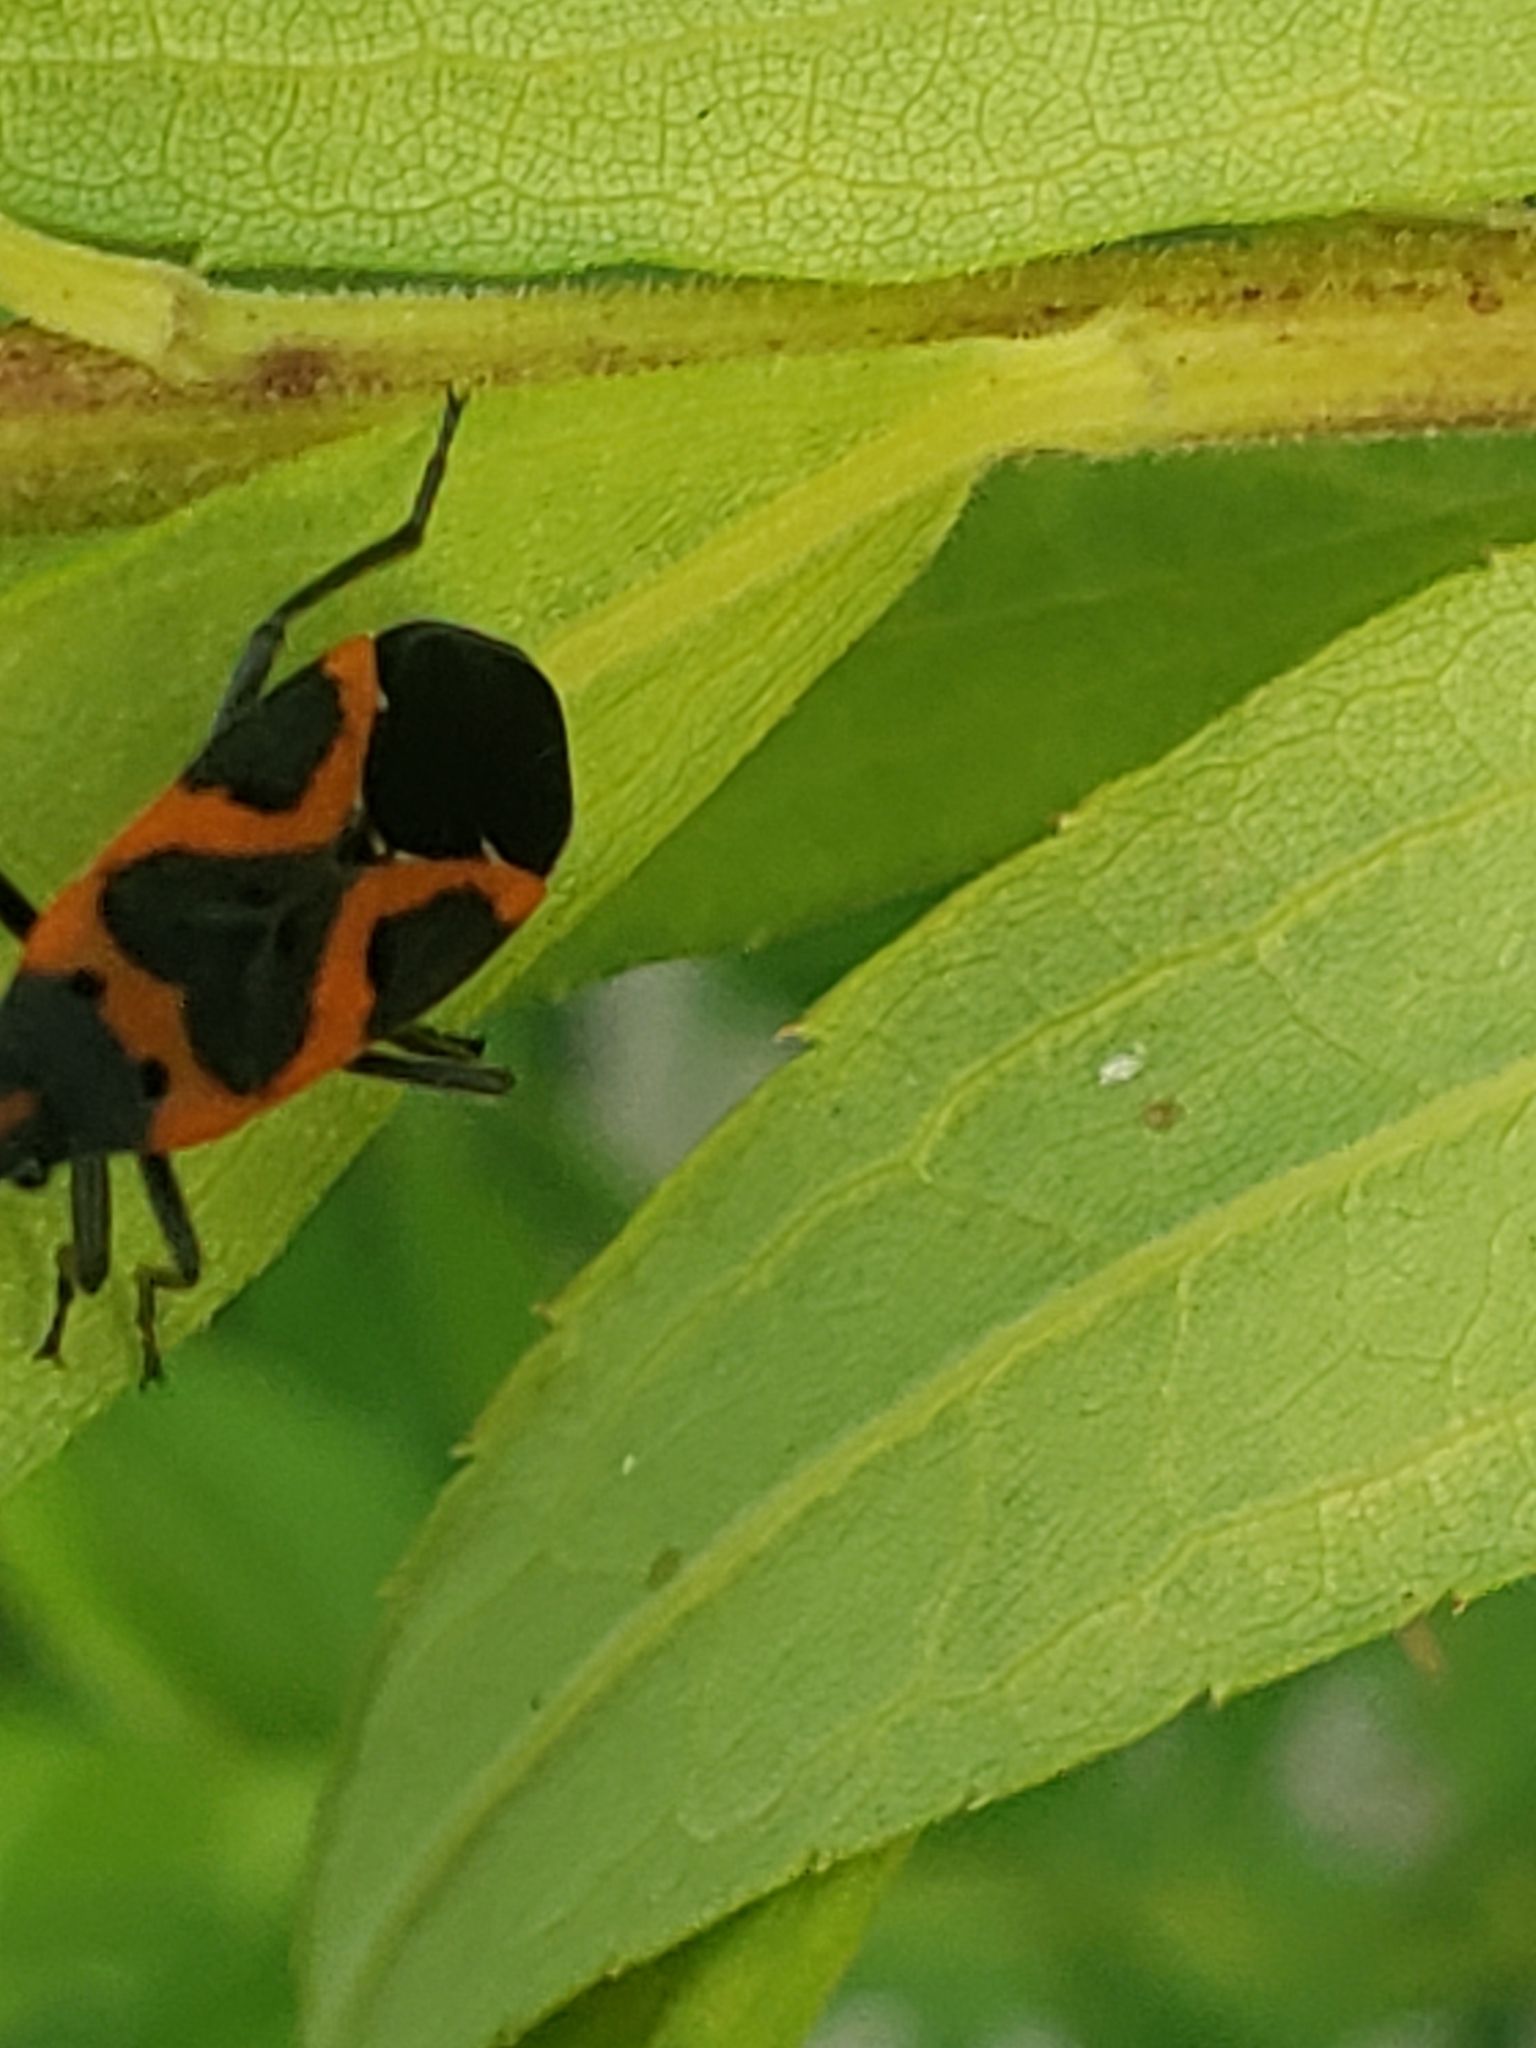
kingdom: Animalia
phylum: Arthropoda
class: Insecta
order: Hemiptera
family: Lygaeidae
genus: Lygaeus
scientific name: Lygaeus kalmii
